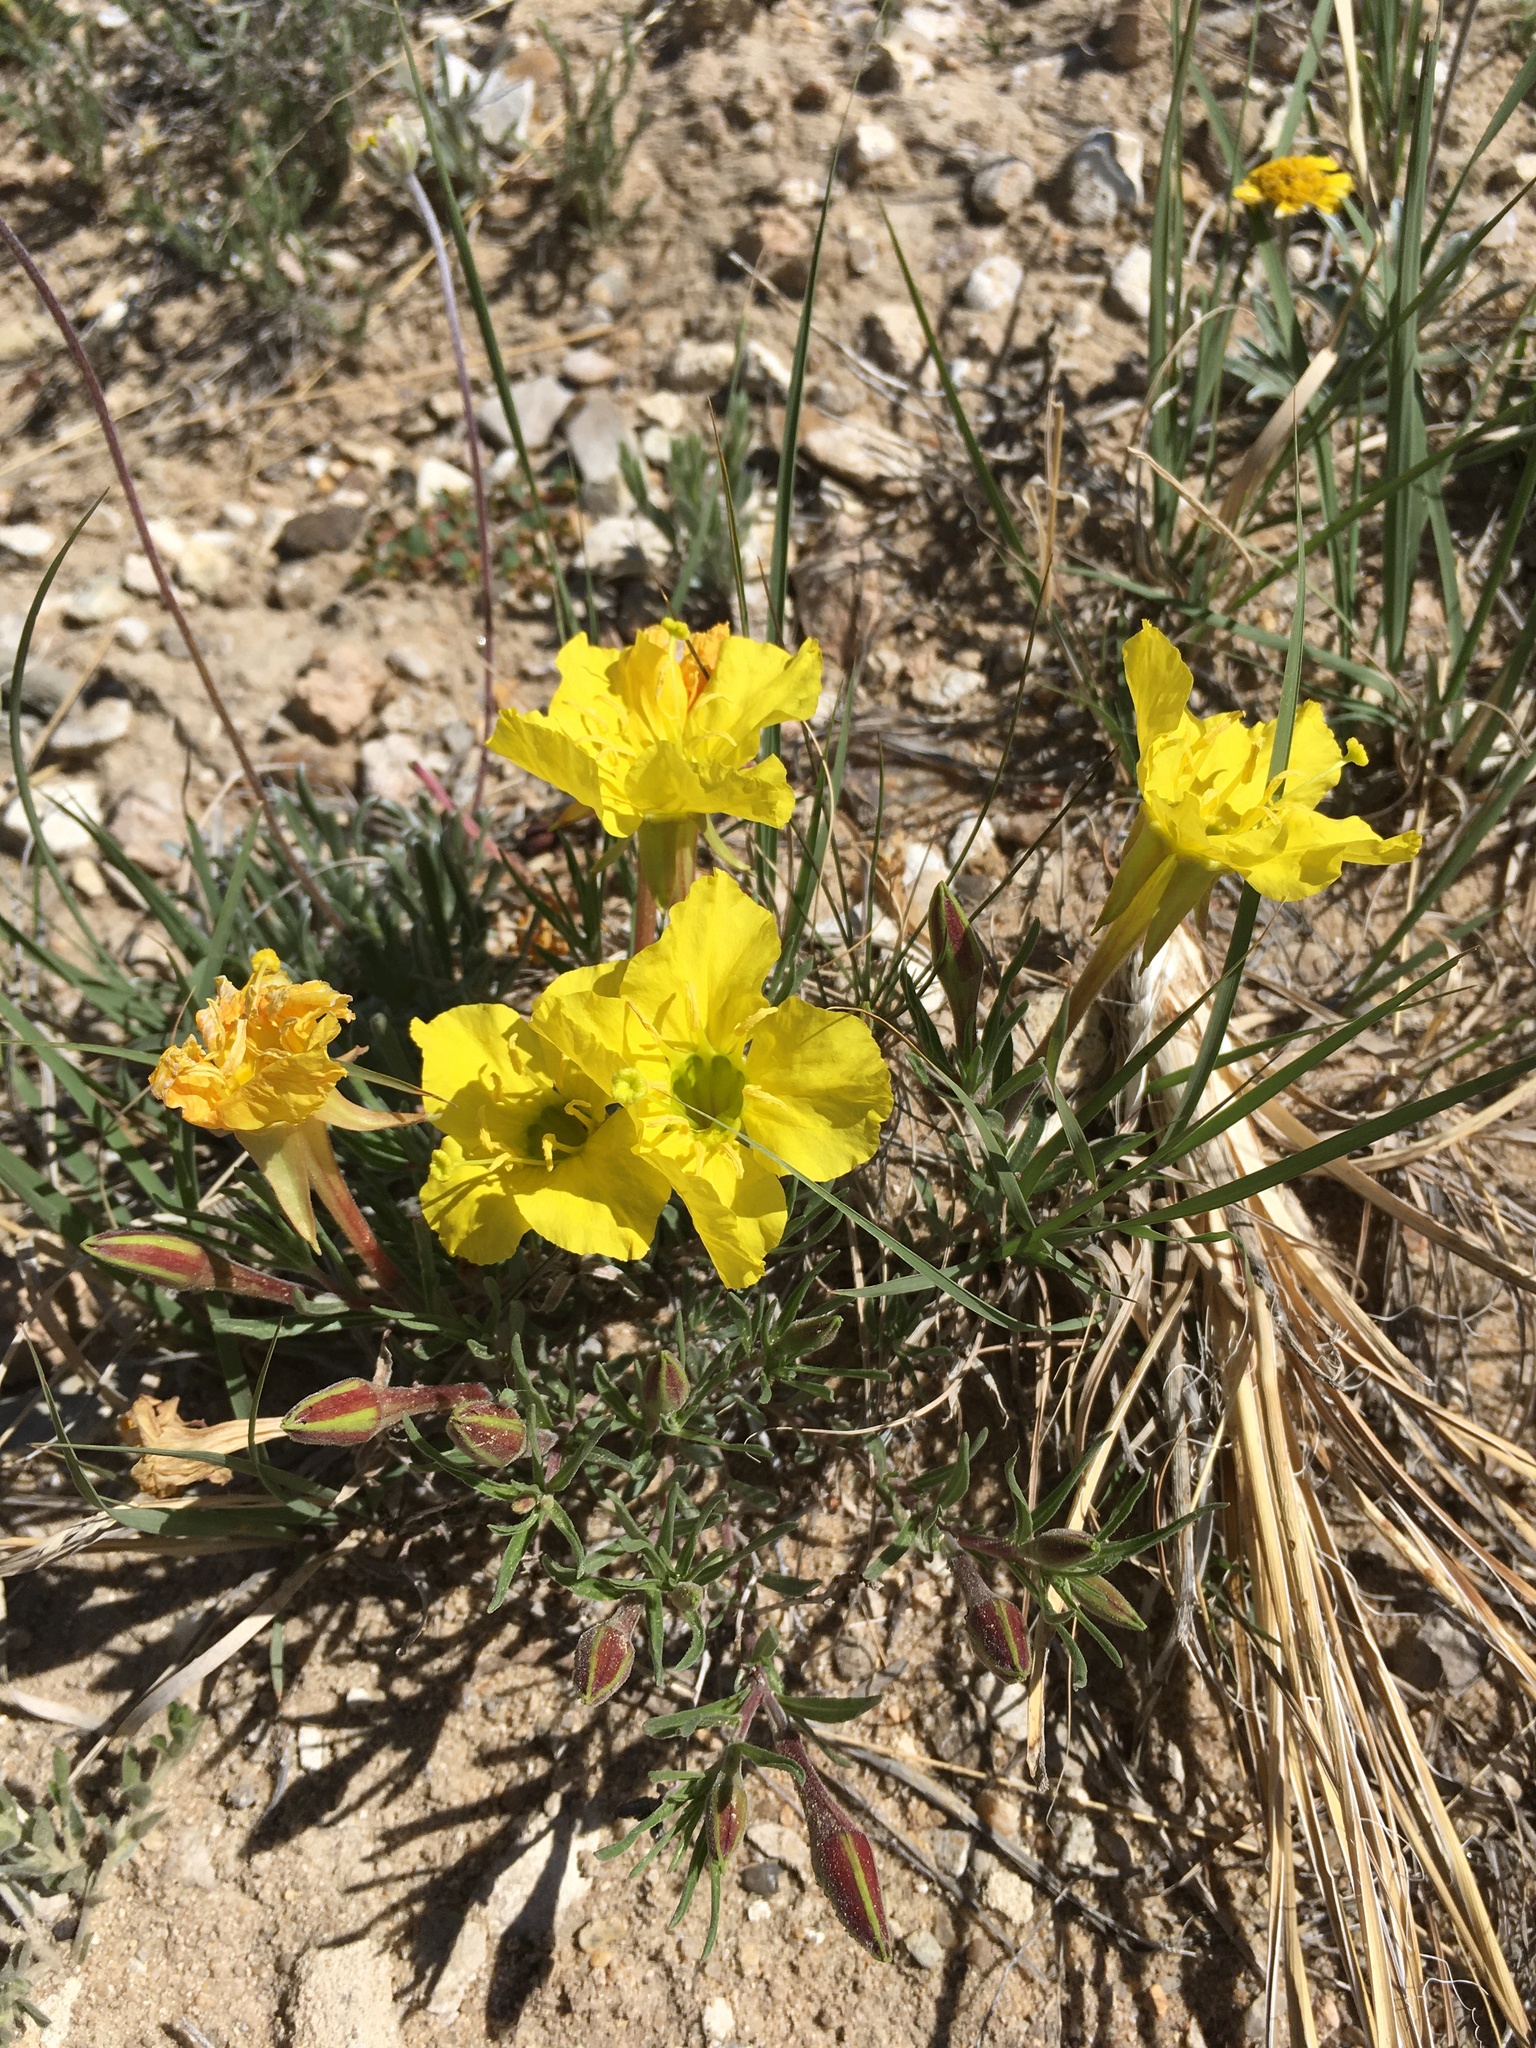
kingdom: Plantae
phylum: Tracheophyta
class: Magnoliopsida
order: Myrtales
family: Onagraceae
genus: Oenothera
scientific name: Oenothera lavandulifolia
